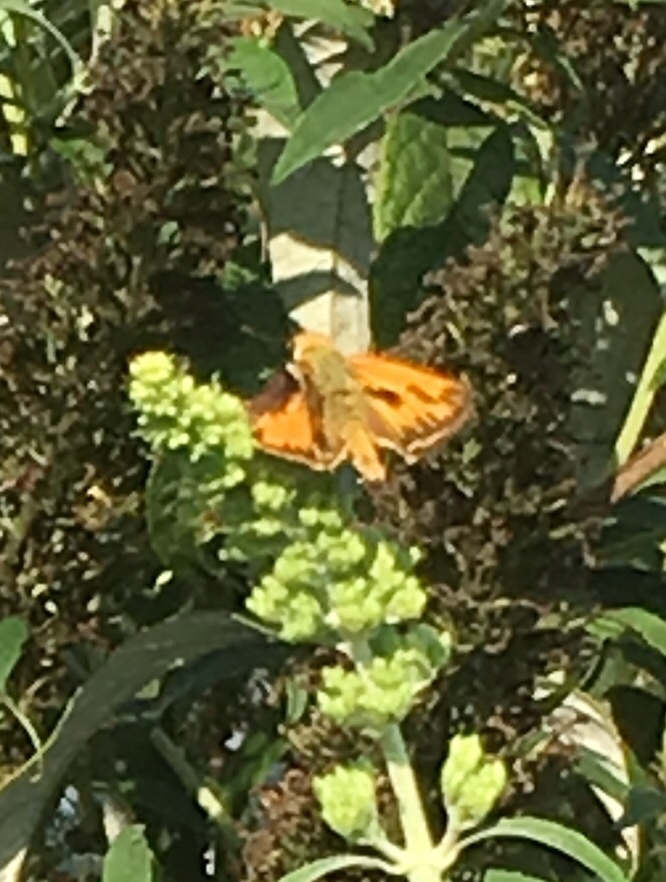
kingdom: Animalia
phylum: Arthropoda
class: Insecta
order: Lepidoptera
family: Hesperiidae
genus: Hylephila
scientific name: Hylephila phyleus
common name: Fiery skipper
